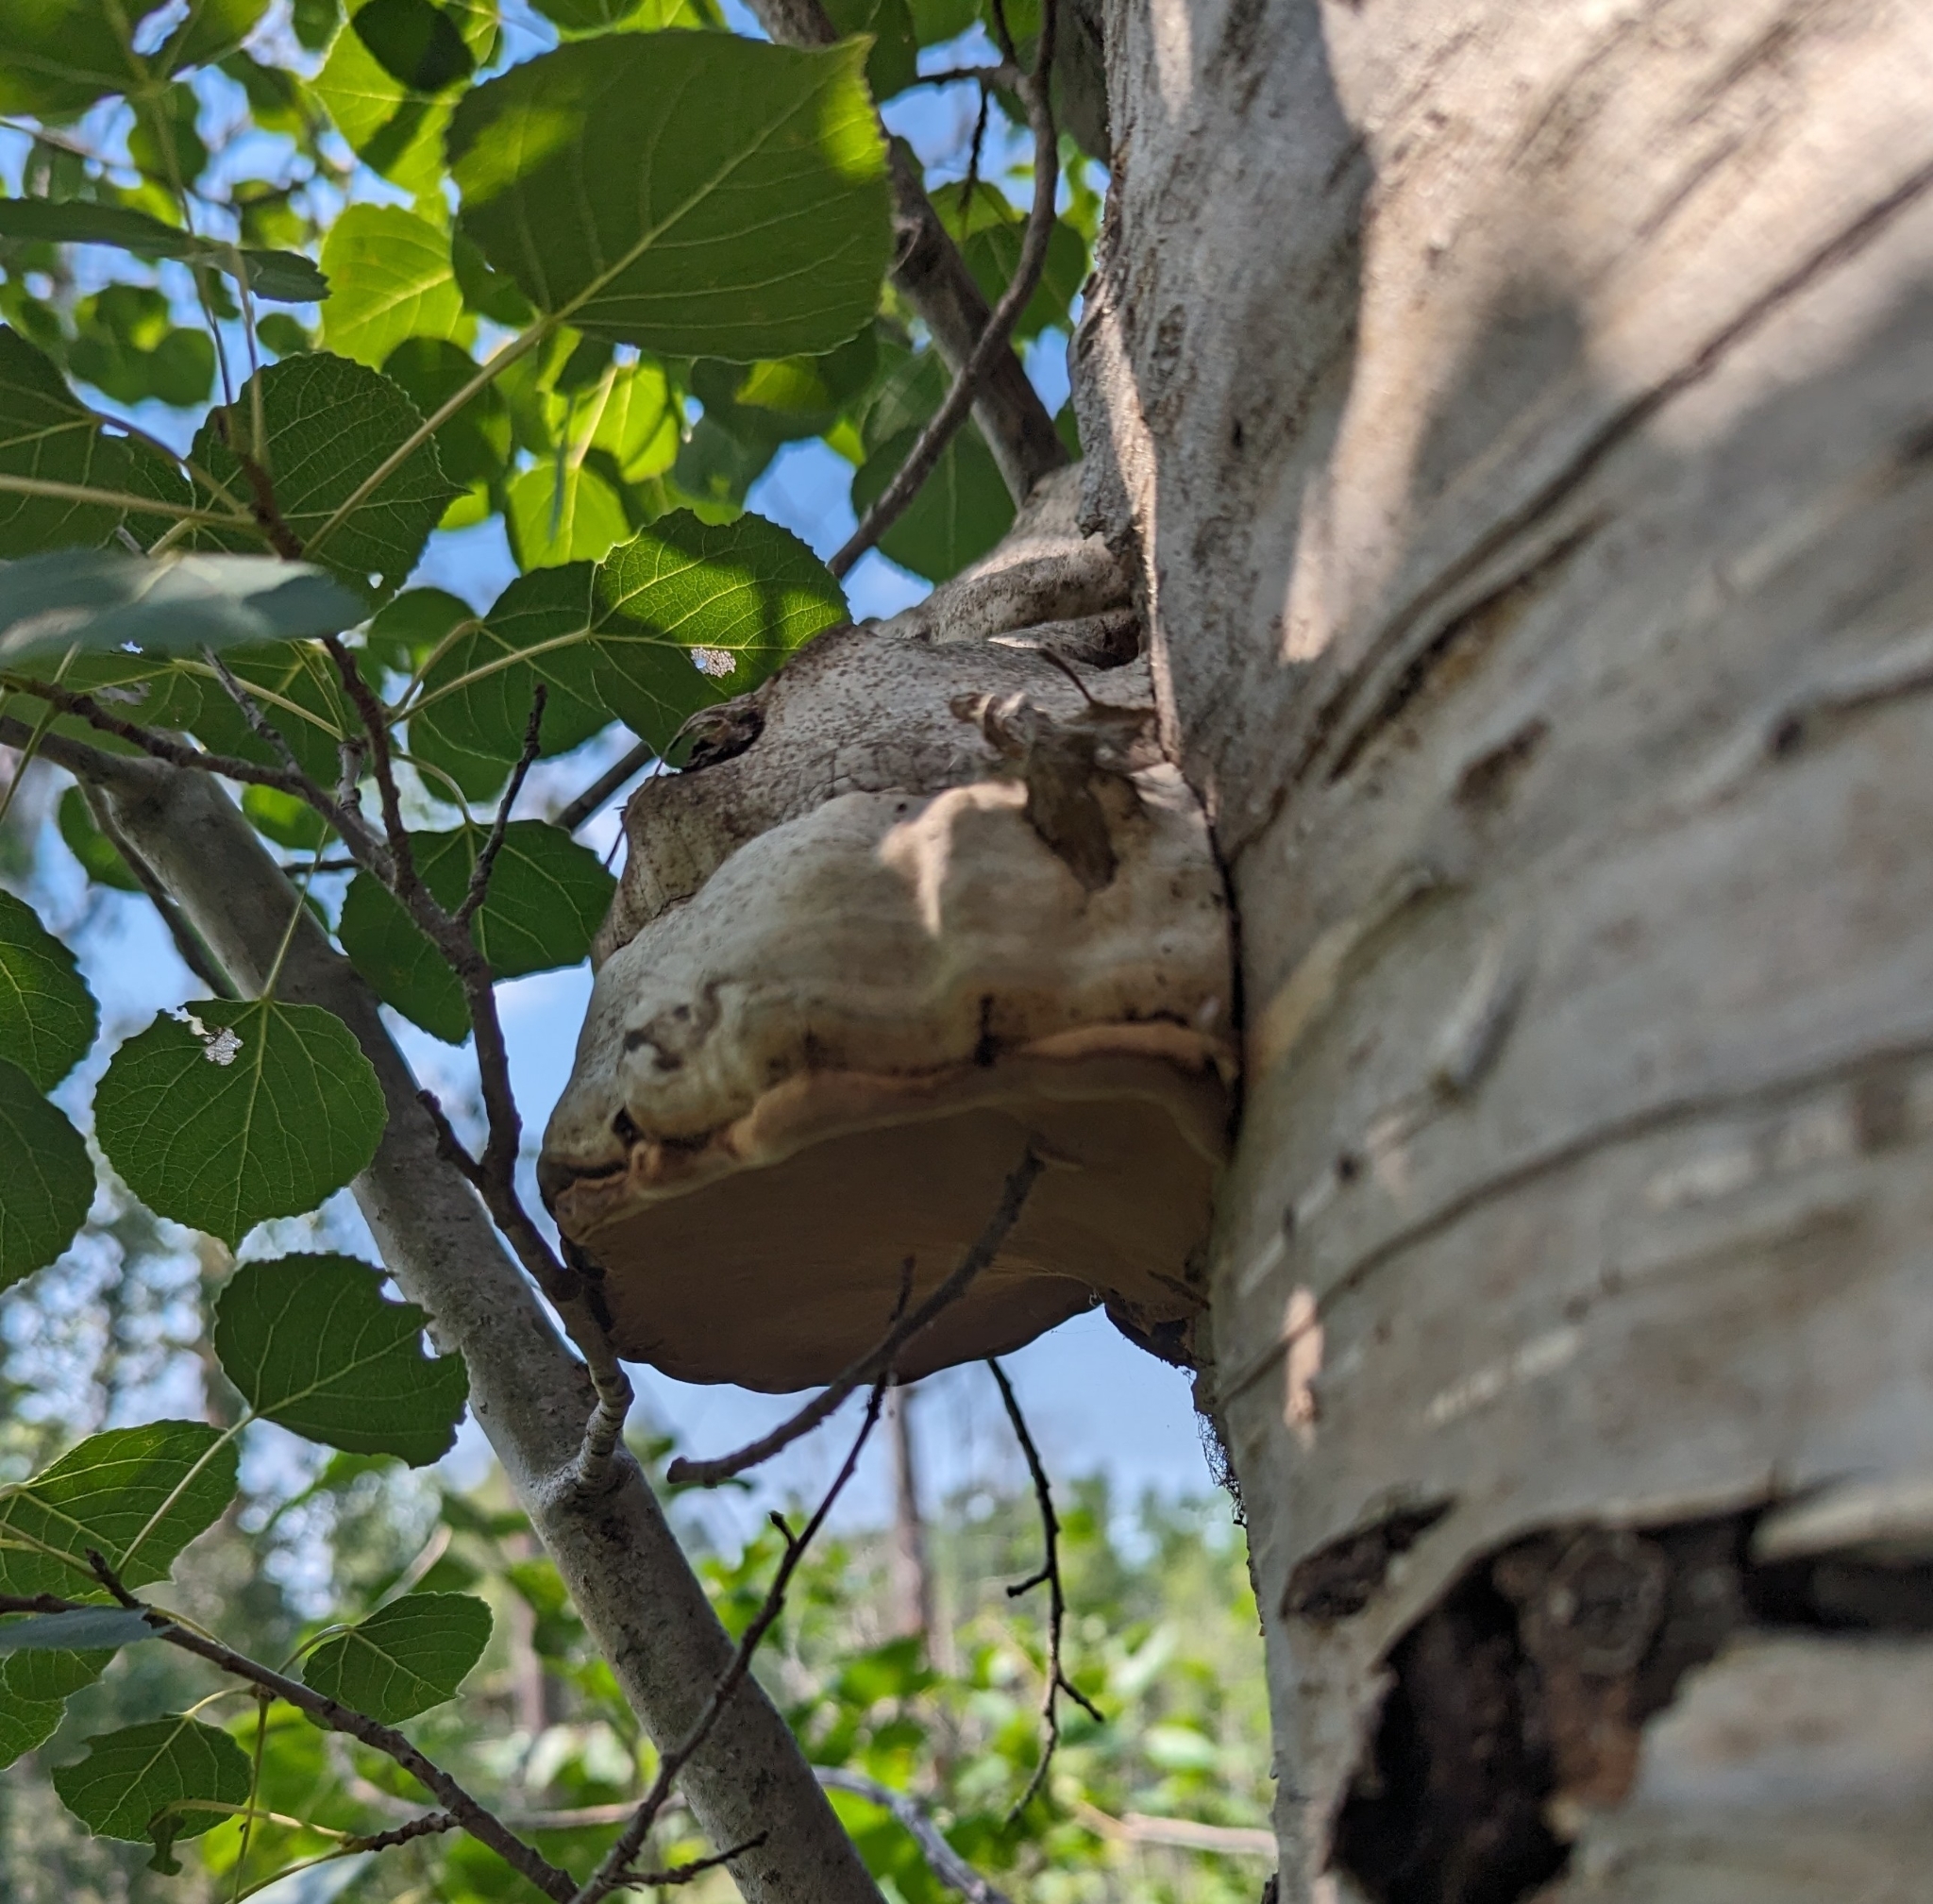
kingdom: Fungi
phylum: Basidiomycota
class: Agaricomycetes
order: Polyporales
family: Polyporaceae
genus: Fomes
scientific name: Fomes fomentarius
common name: Hoof fungus
